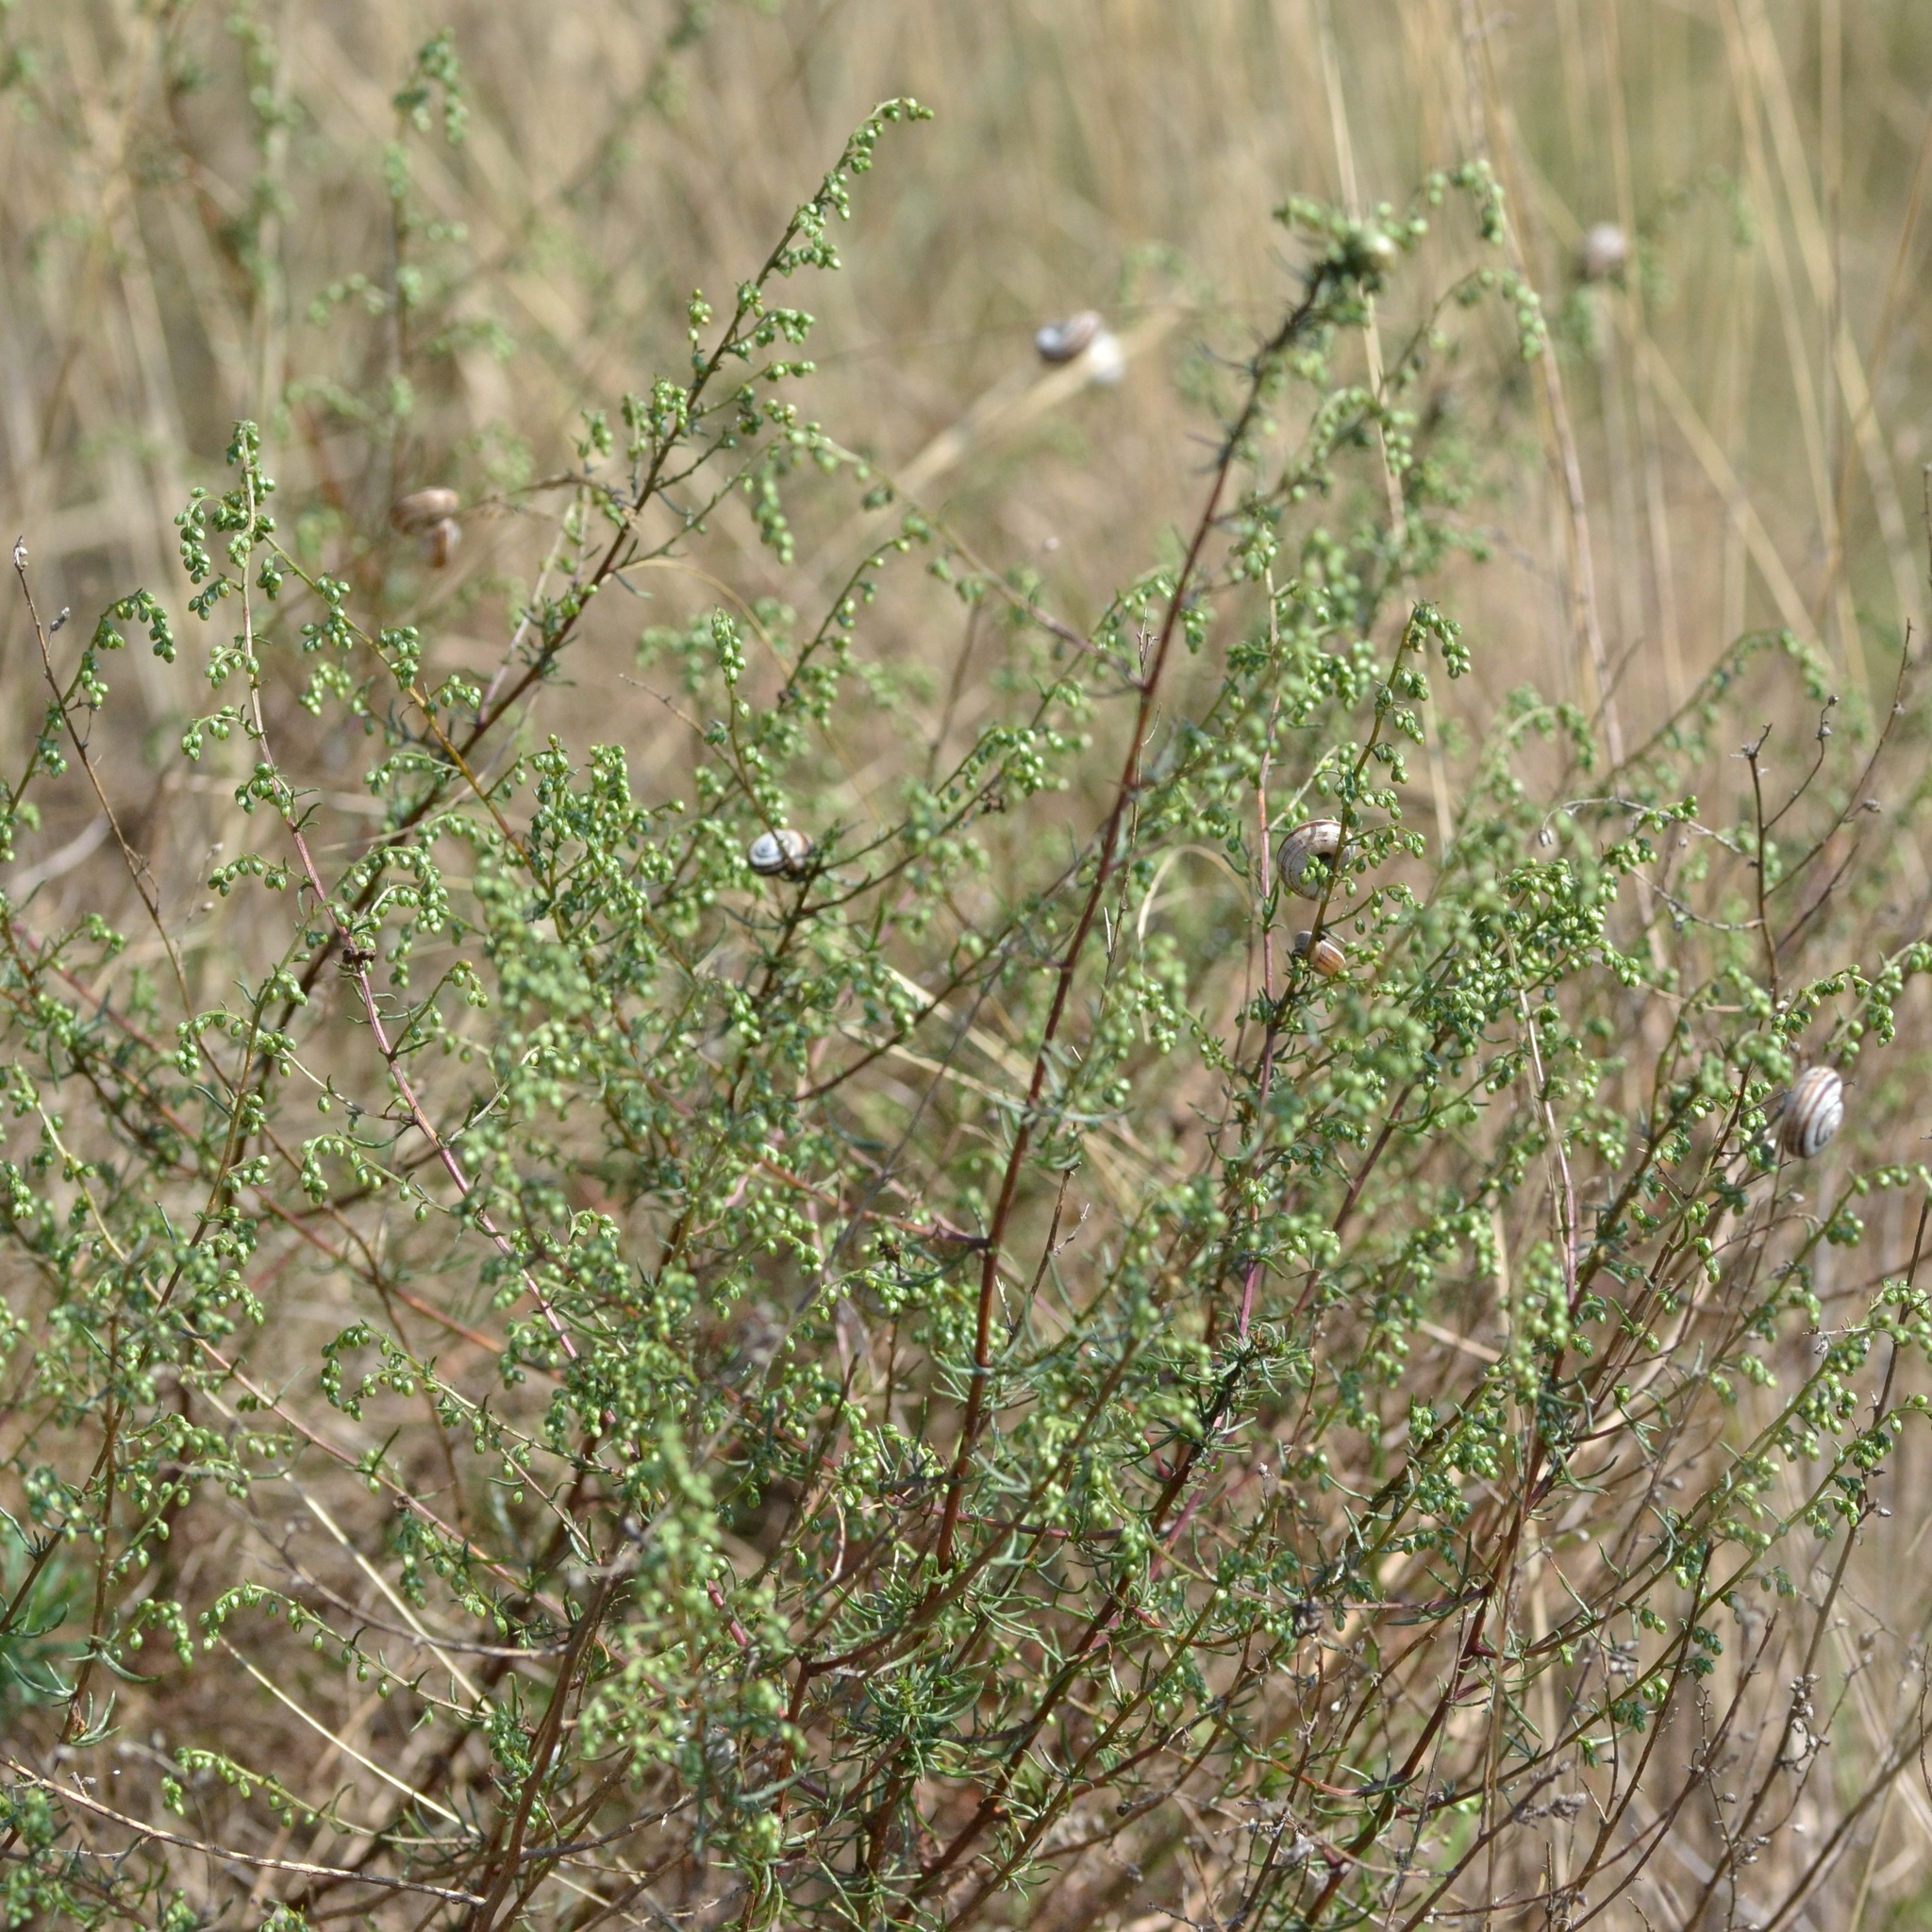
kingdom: Plantae
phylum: Tracheophyta
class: Magnoliopsida
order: Asterales
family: Asteraceae
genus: Artemisia
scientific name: Artemisia campestris
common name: Field wormwood
